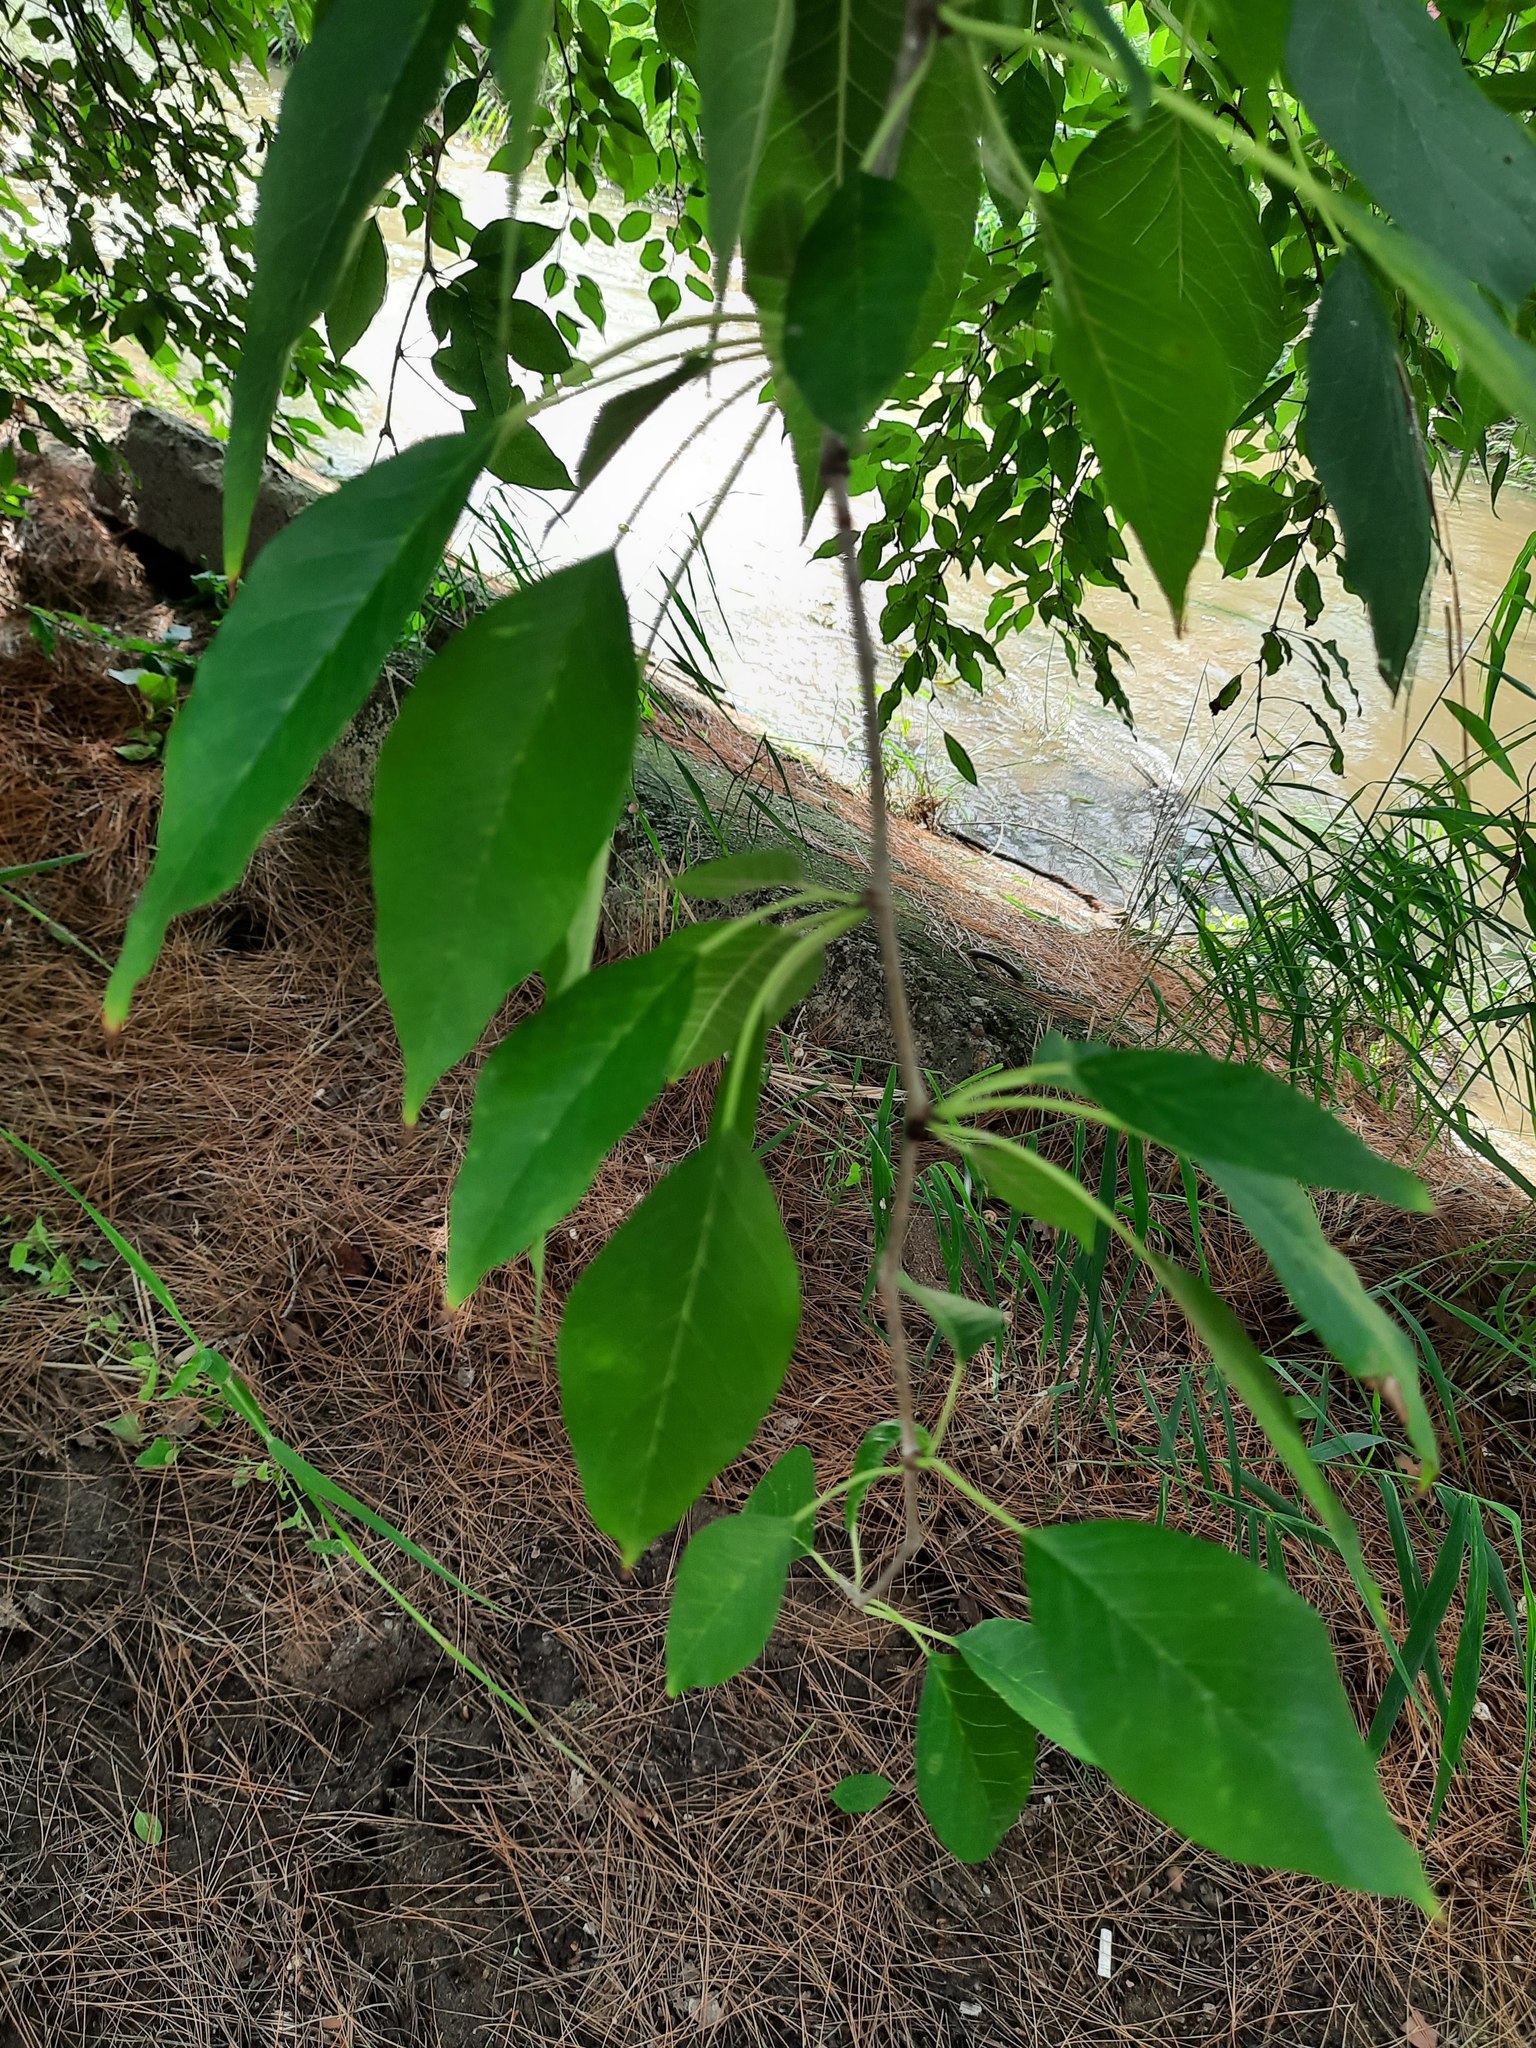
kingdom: Plantae
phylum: Tracheophyta
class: Magnoliopsida
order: Rosales
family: Moraceae
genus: Maclura
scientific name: Maclura pomifera
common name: Osage-orange
